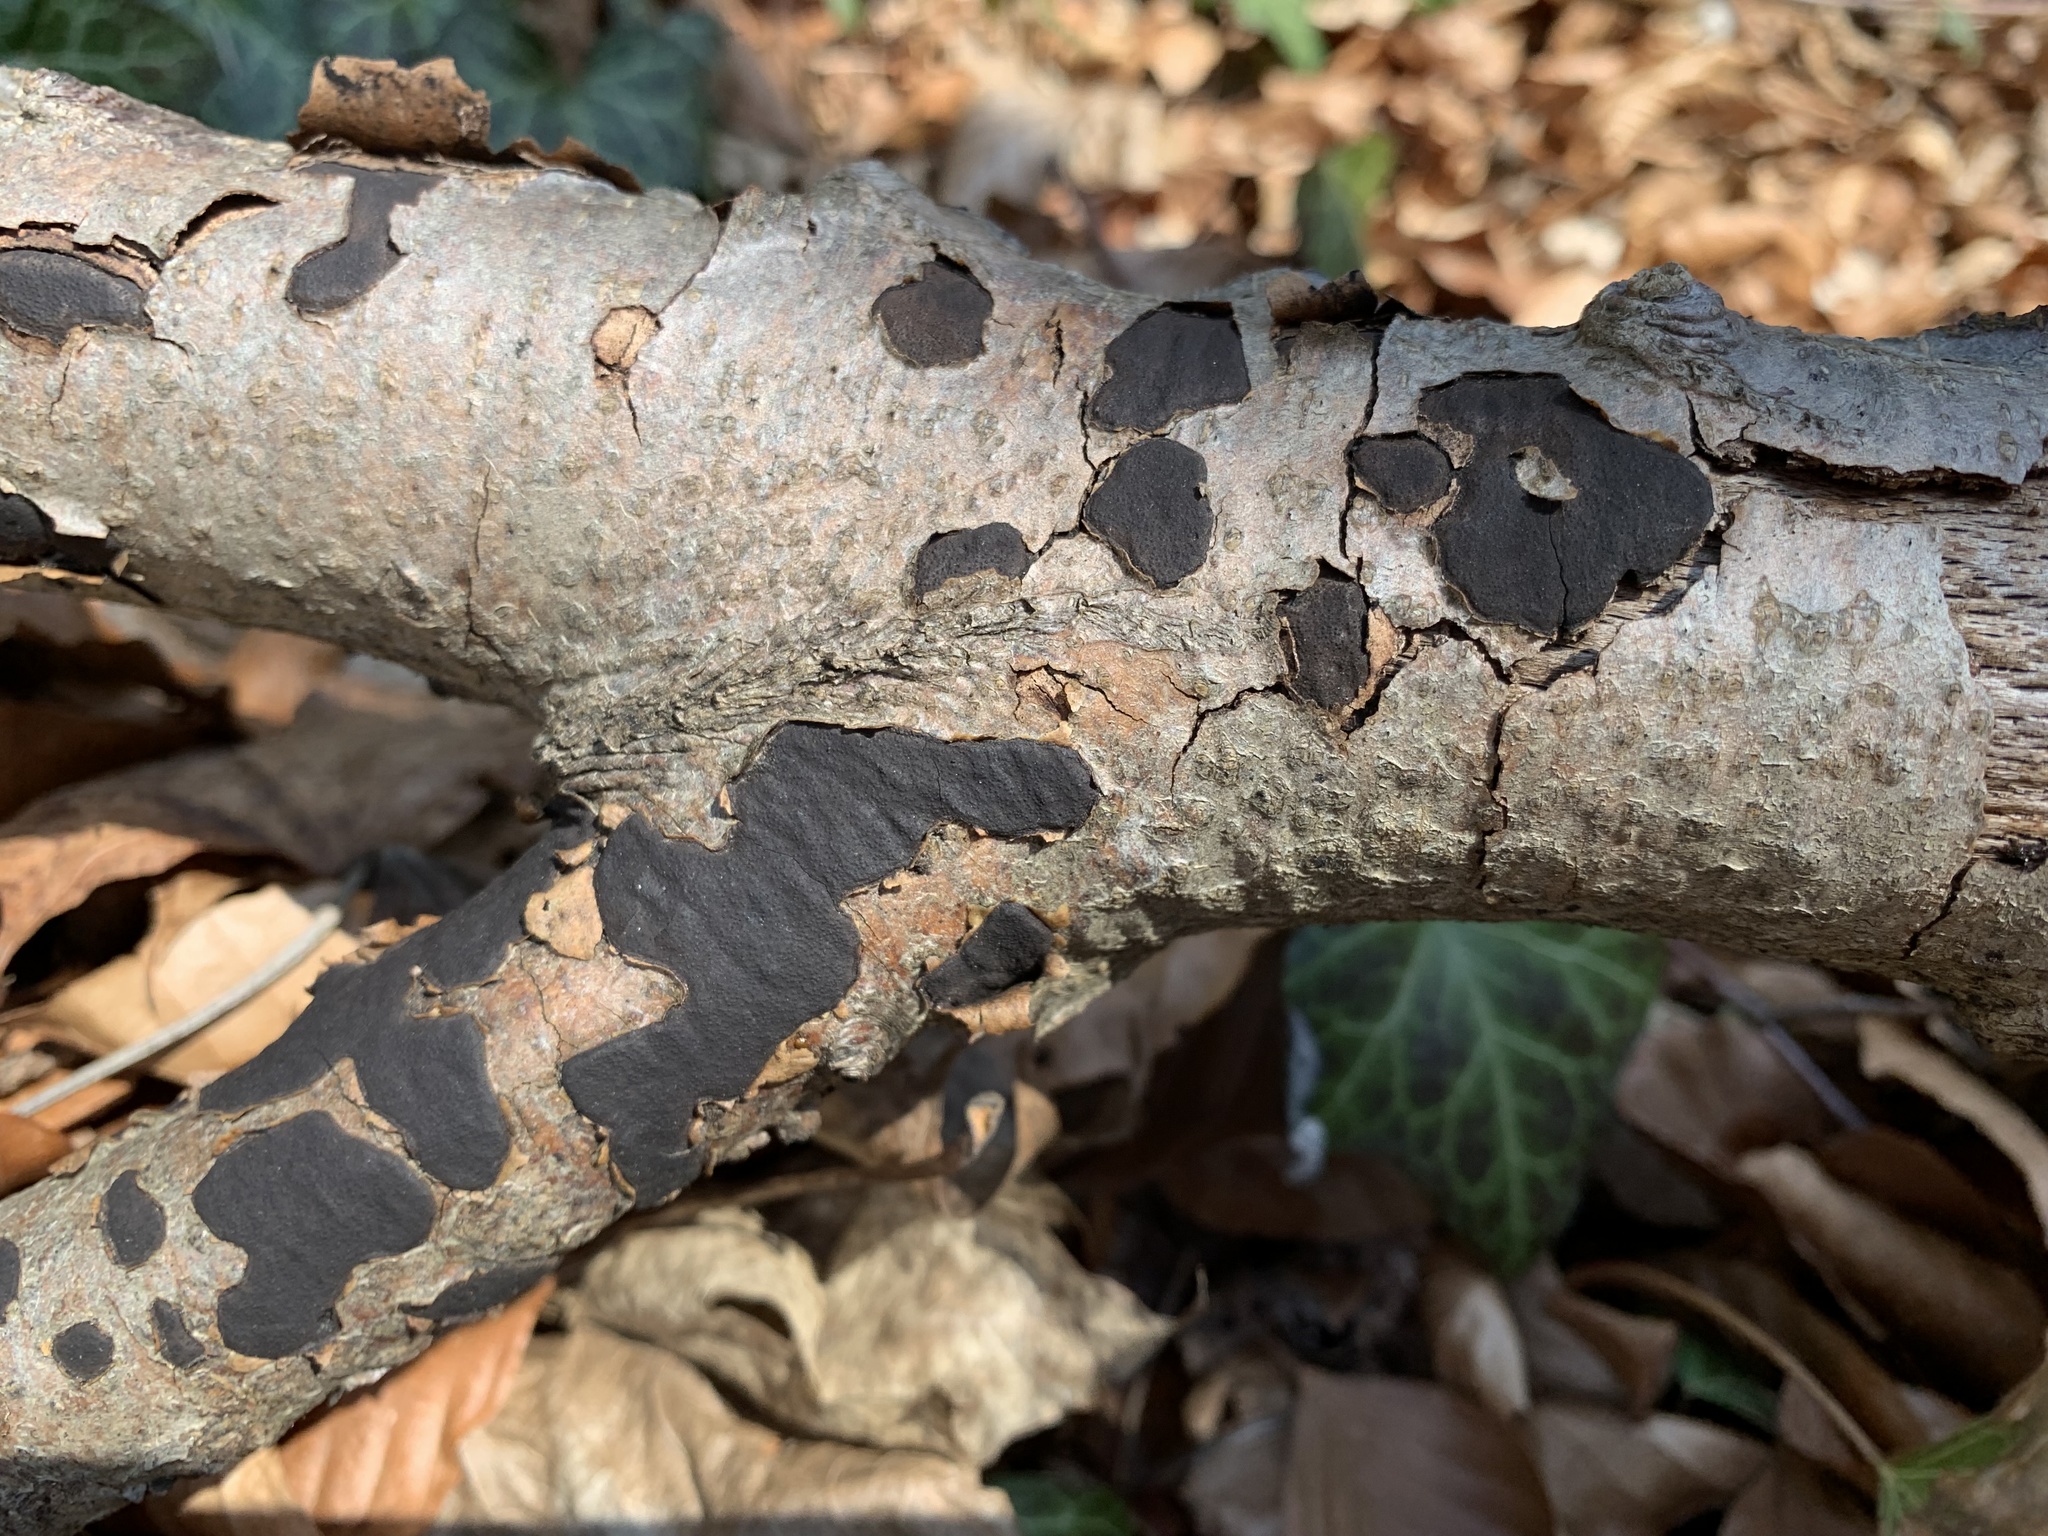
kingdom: Fungi
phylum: Ascomycota
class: Sordariomycetes
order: Xylariales
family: Diatrypaceae
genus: Diatrype
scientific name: Diatrype stigma
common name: Common tarcrust
